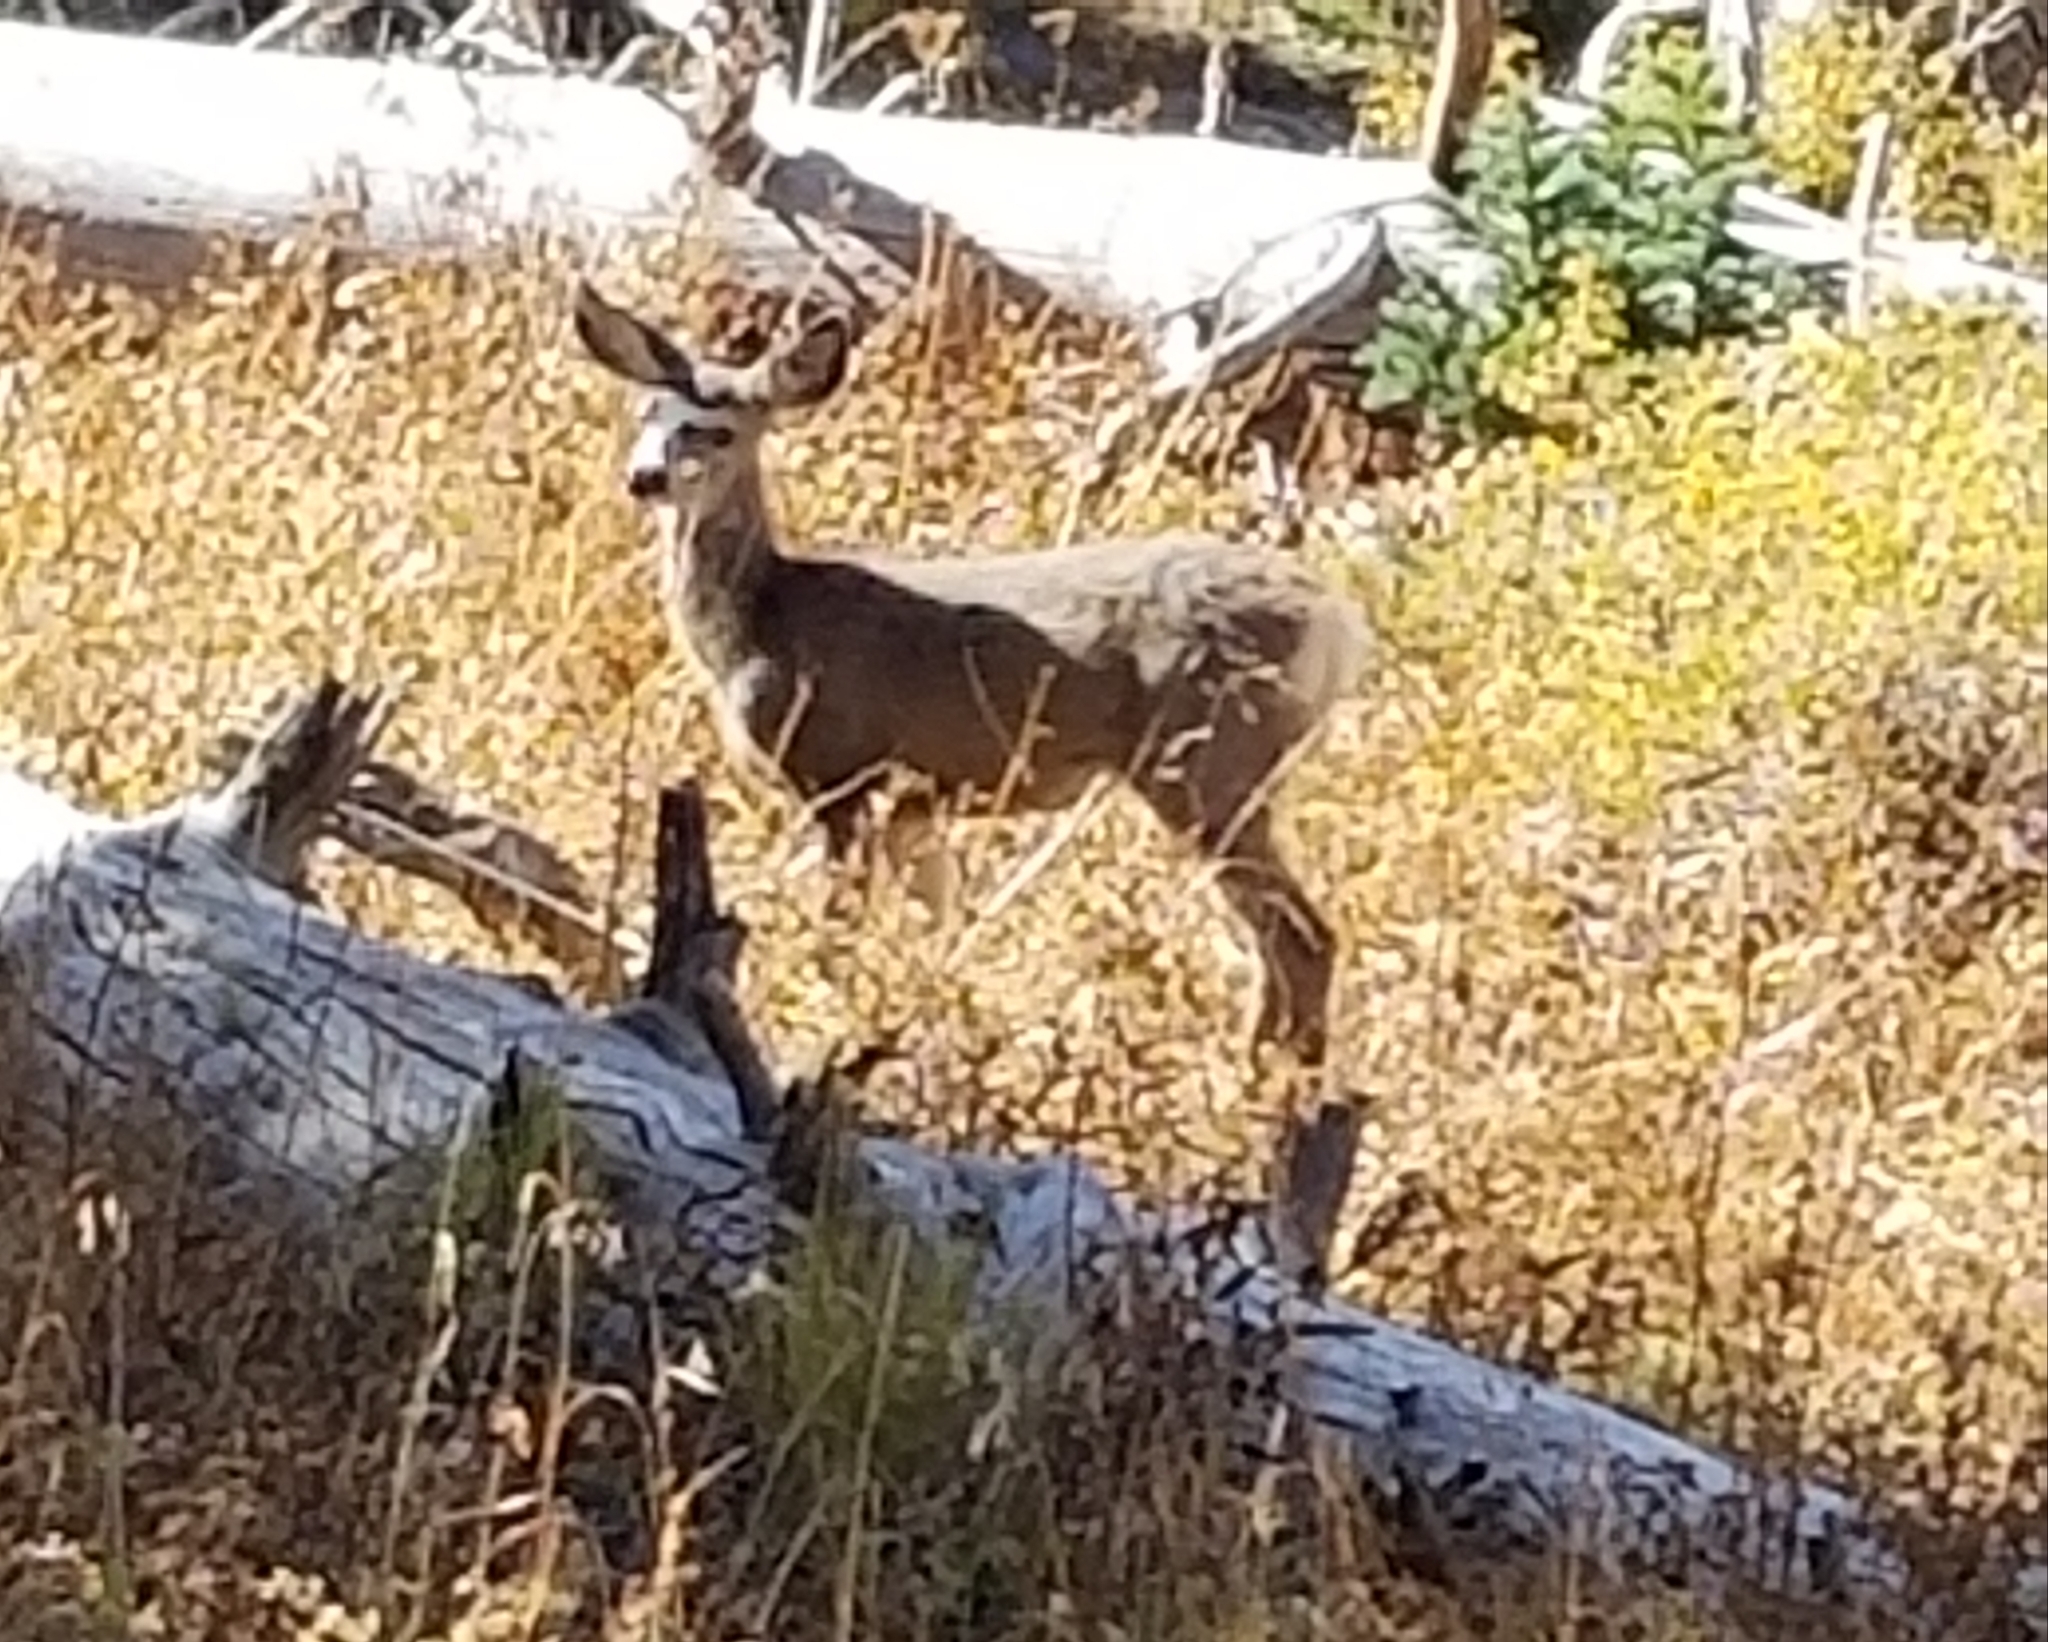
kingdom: Animalia
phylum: Chordata
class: Mammalia
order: Artiodactyla
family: Cervidae
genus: Odocoileus
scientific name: Odocoileus hemionus
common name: Mule deer
